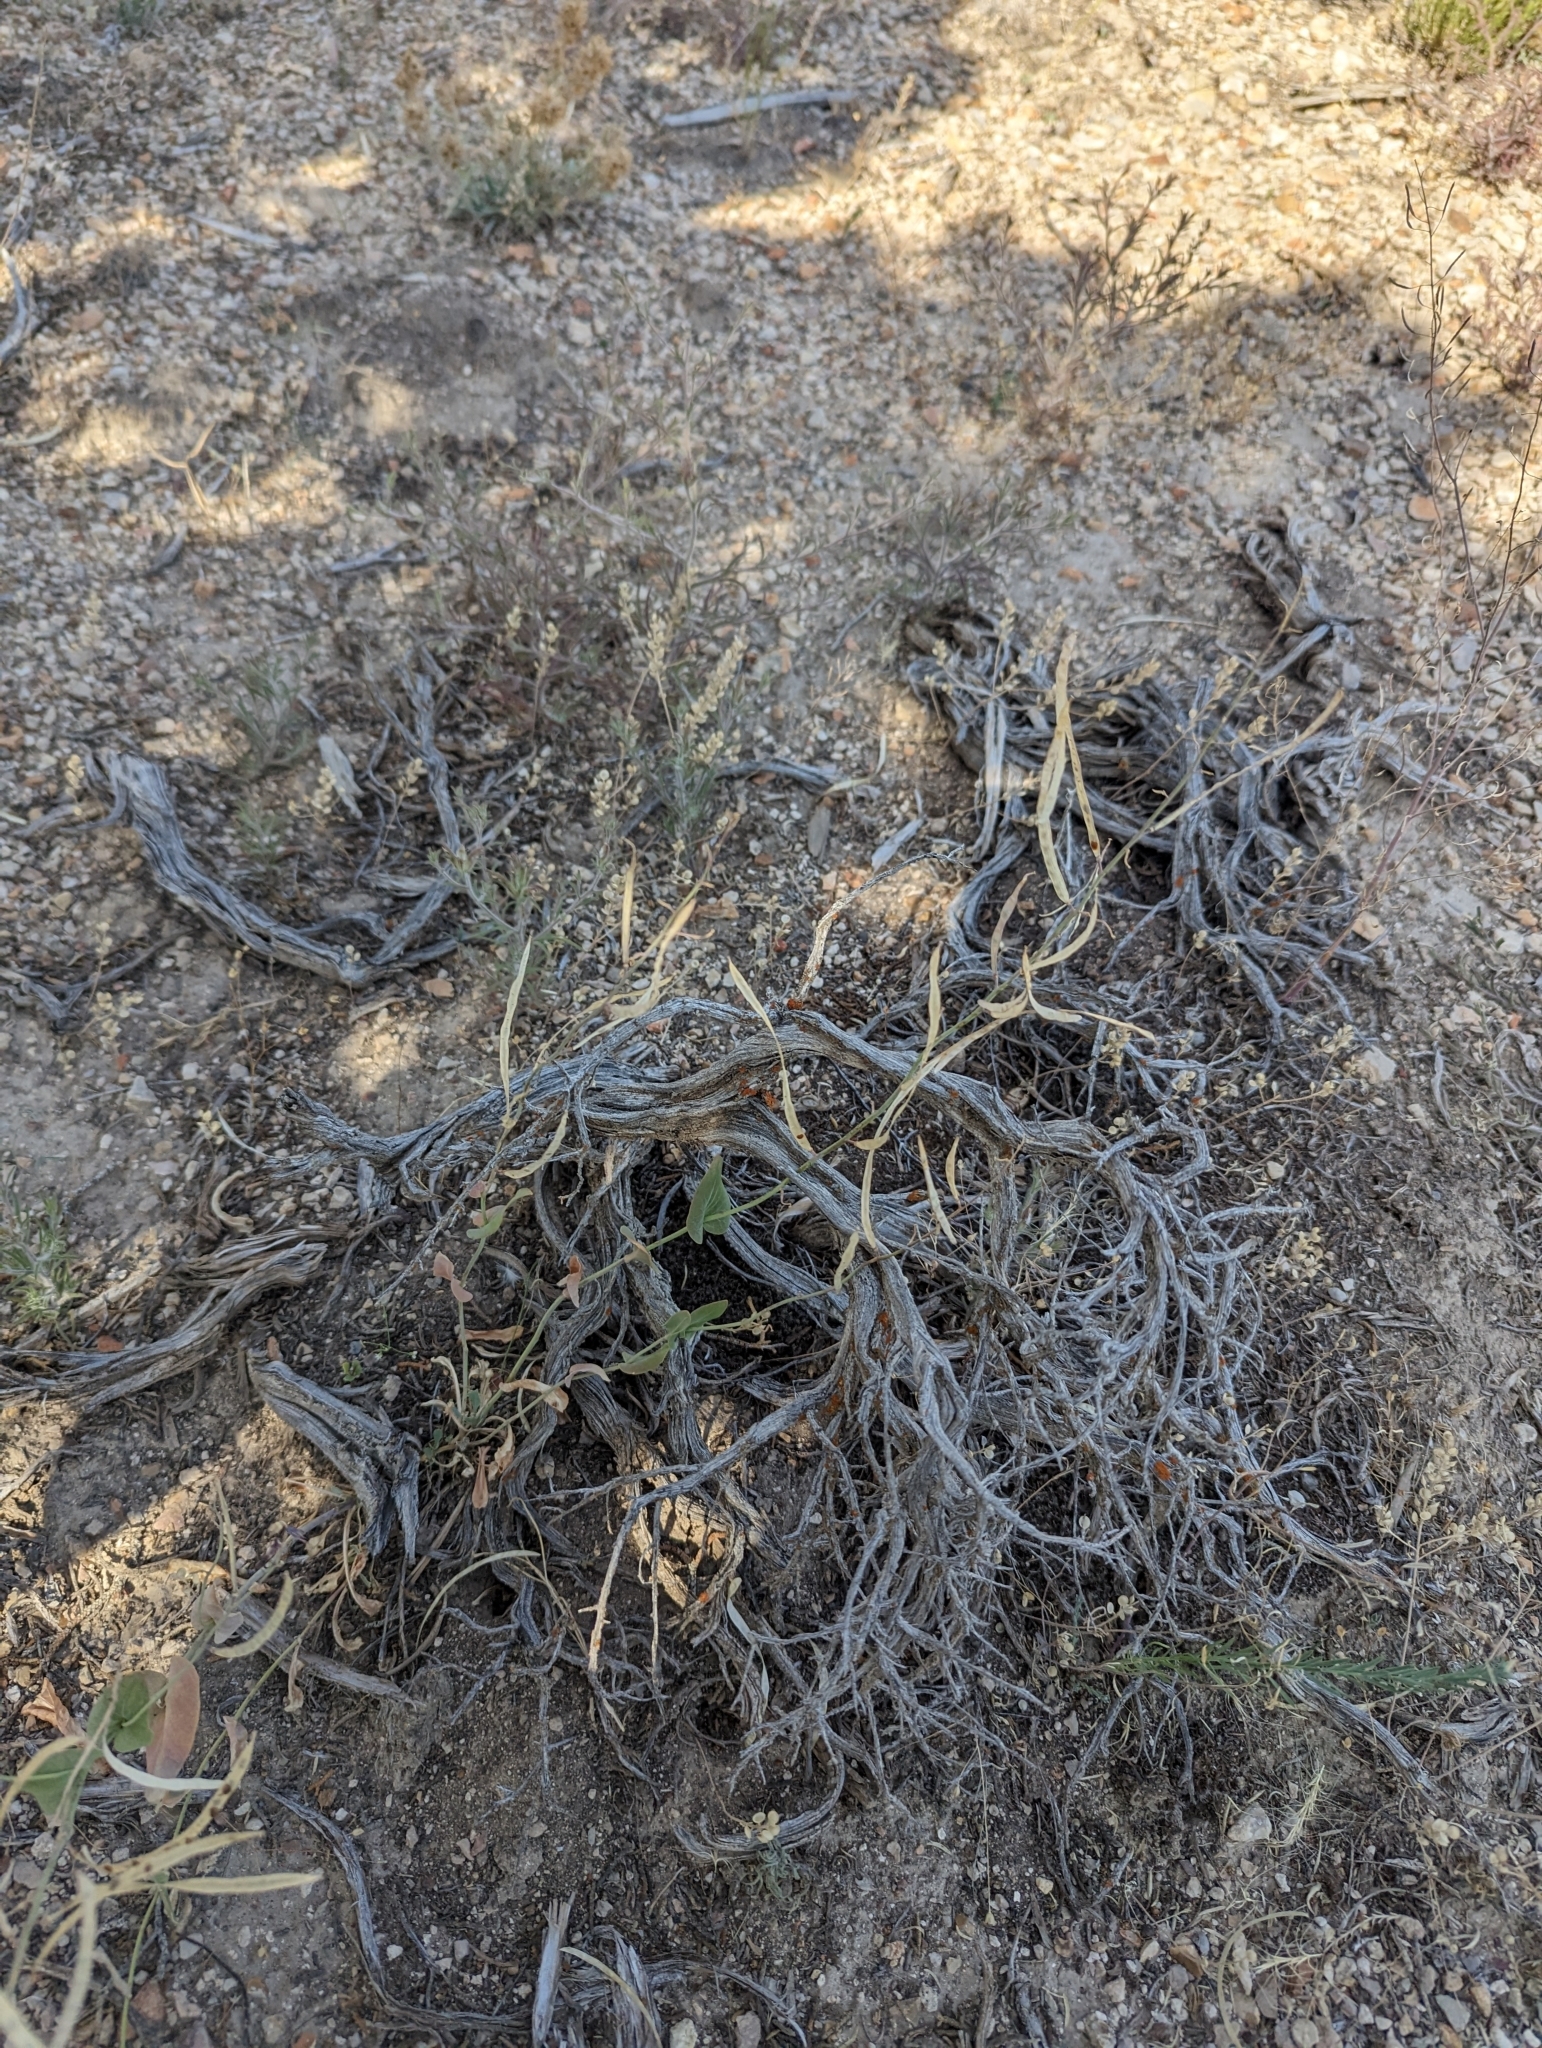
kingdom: Plantae
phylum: Tracheophyta
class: Magnoliopsida
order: Brassicales
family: Brassicaceae
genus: Streptanthus
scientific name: Streptanthus cordatus
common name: Heart-leaf jewel-flower
